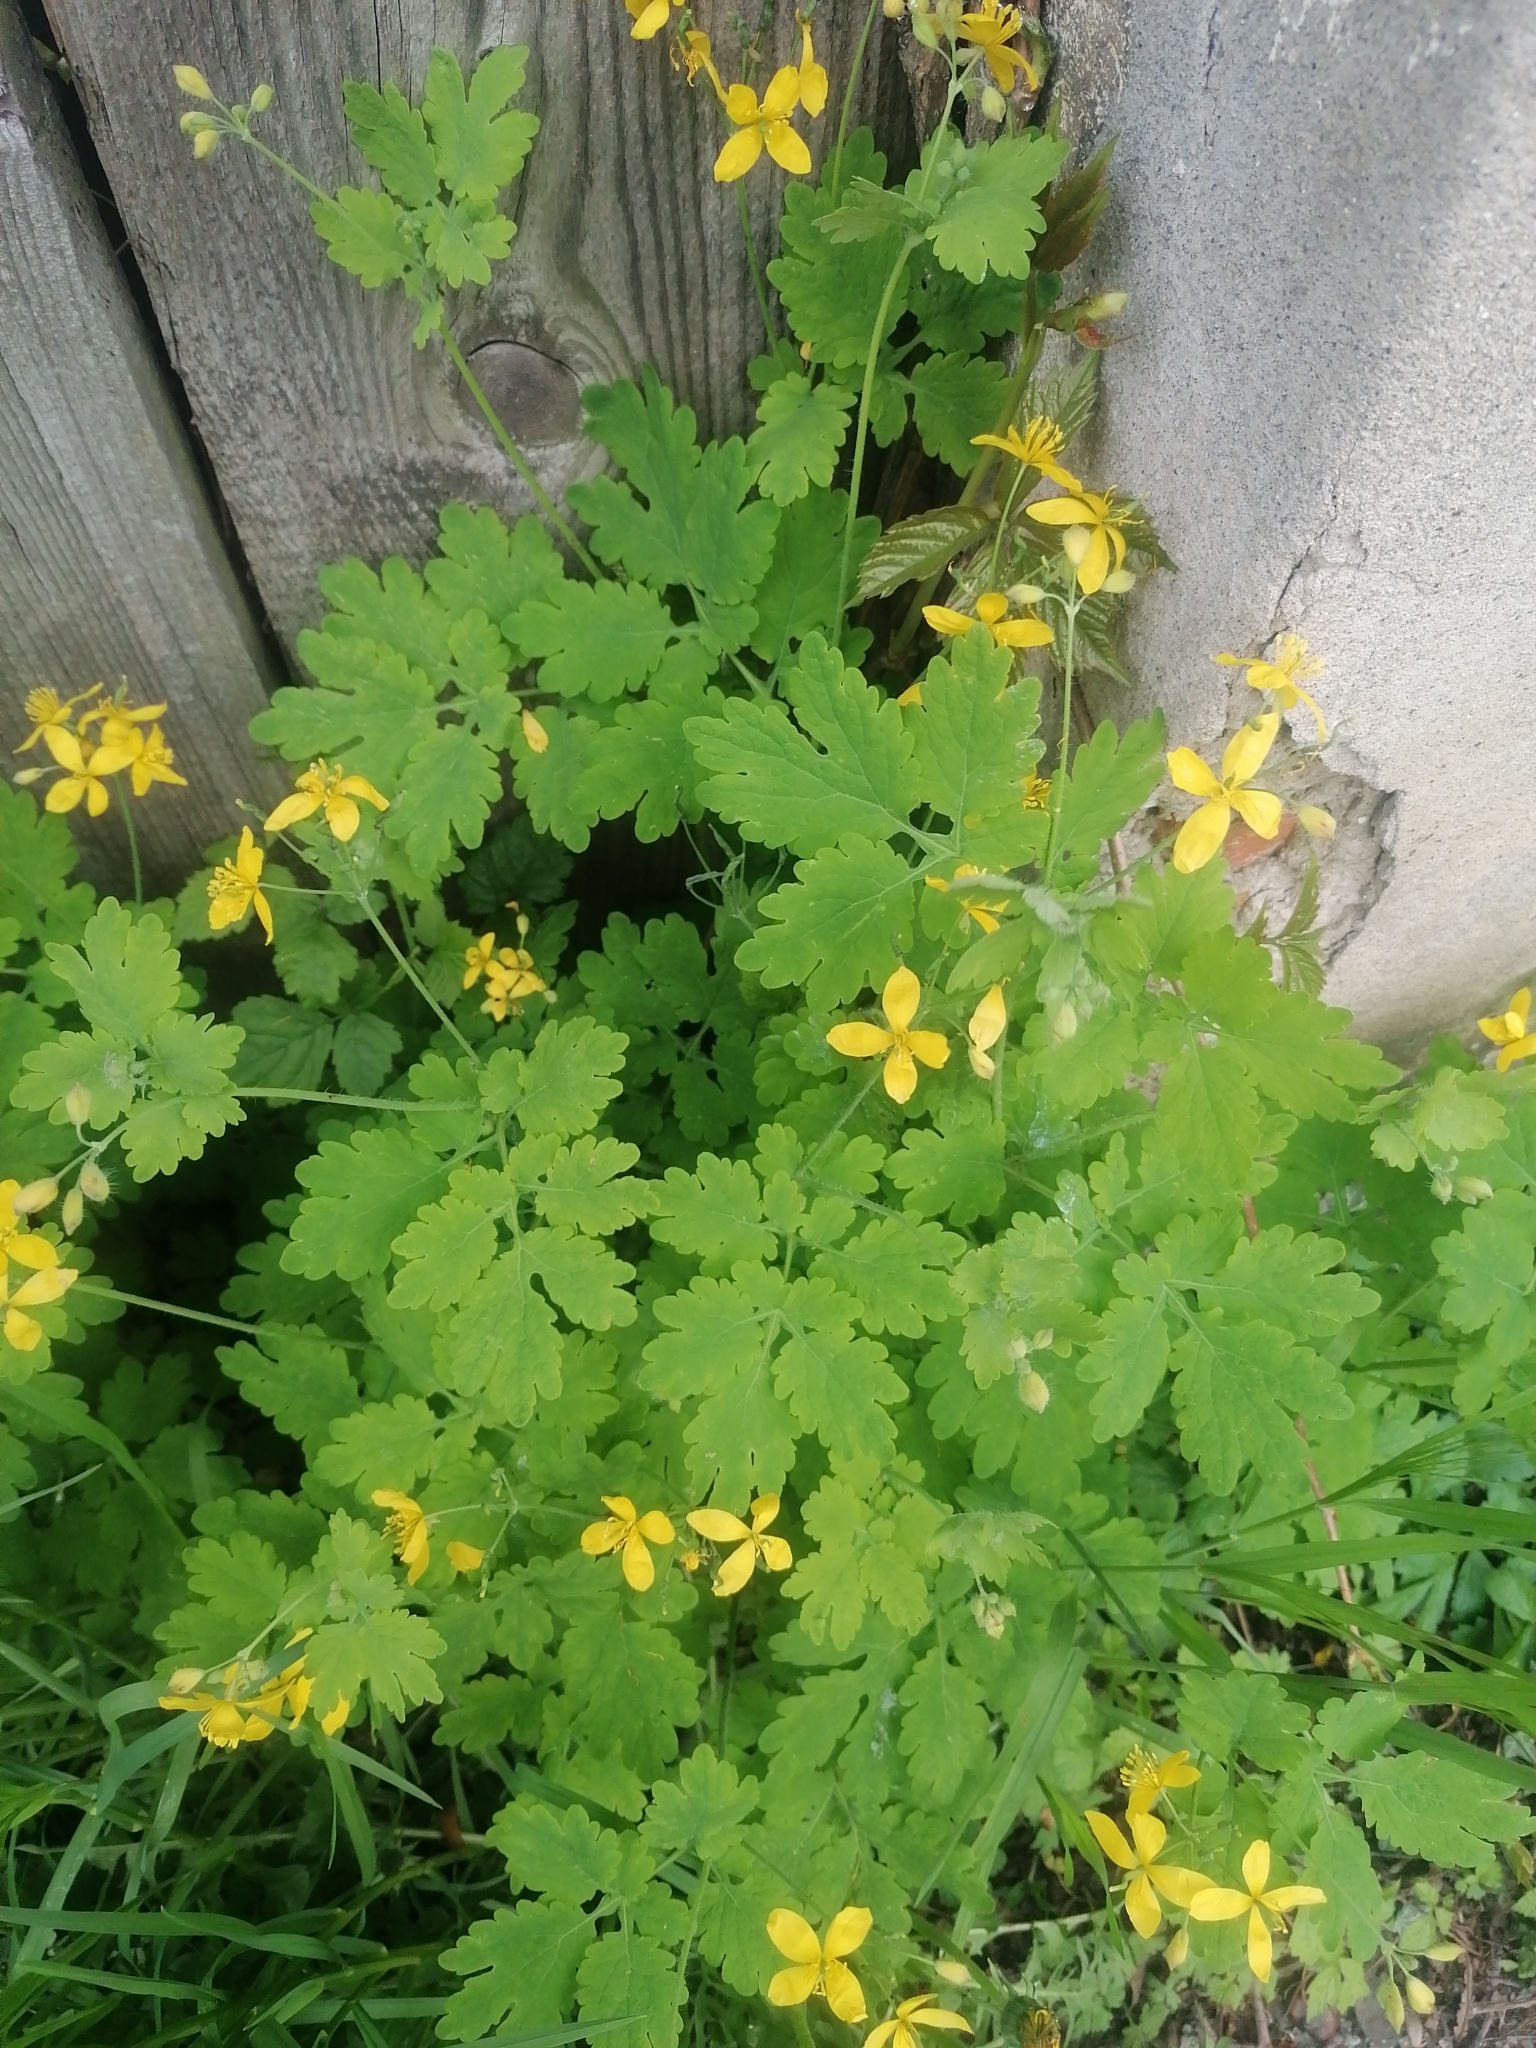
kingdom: Plantae
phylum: Tracheophyta
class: Magnoliopsida
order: Ranunculales
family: Papaveraceae
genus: Chelidonium
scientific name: Chelidonium majus
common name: Greater celandine
